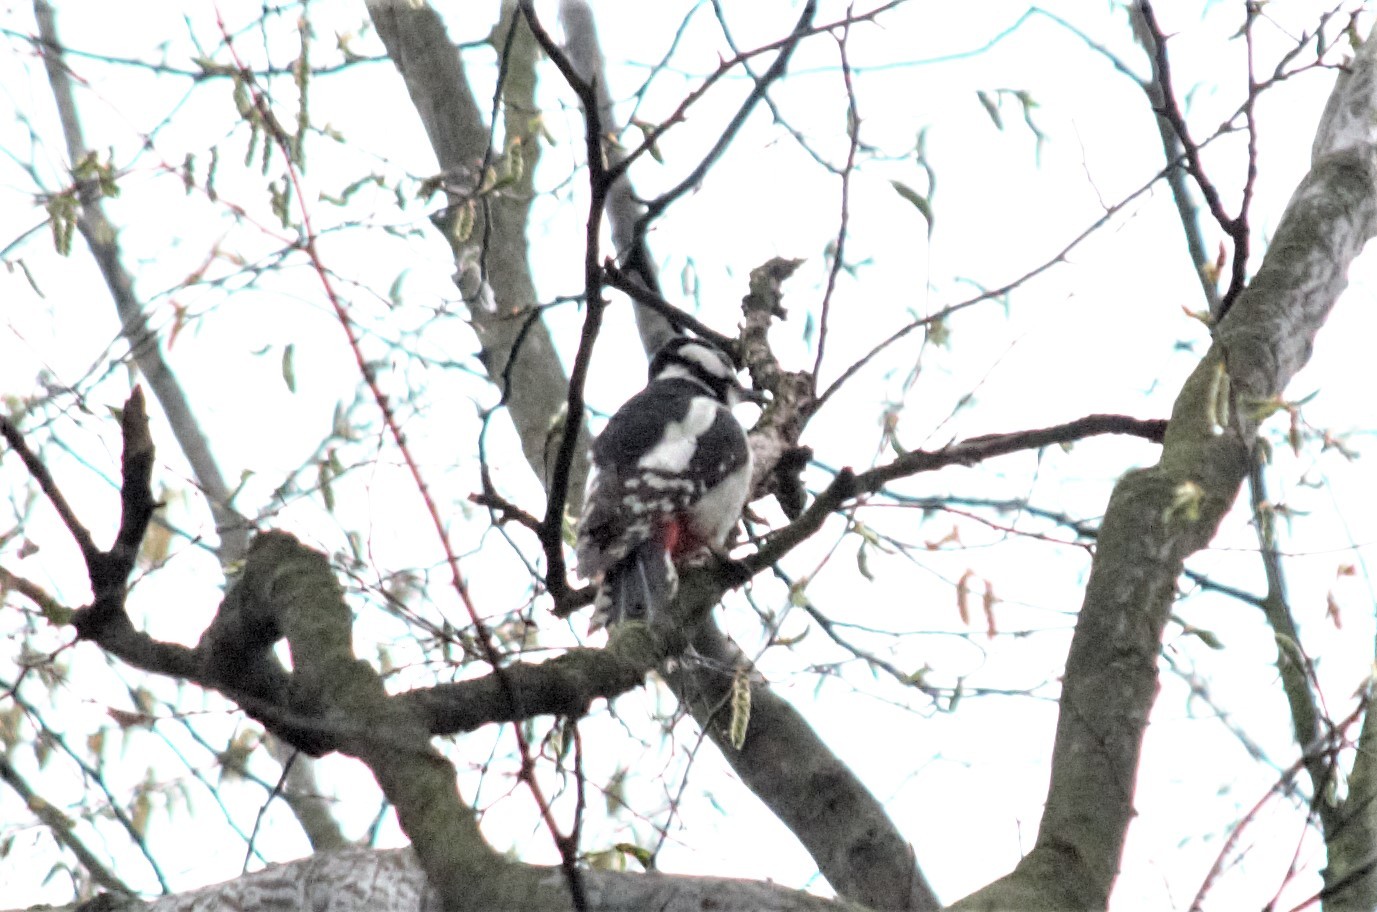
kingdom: Animalia
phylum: Chordata
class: Aves
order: Piciformes
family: Picidae
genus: Dendrocopos
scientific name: Dendrocopos major
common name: Great spotted woodpecker
